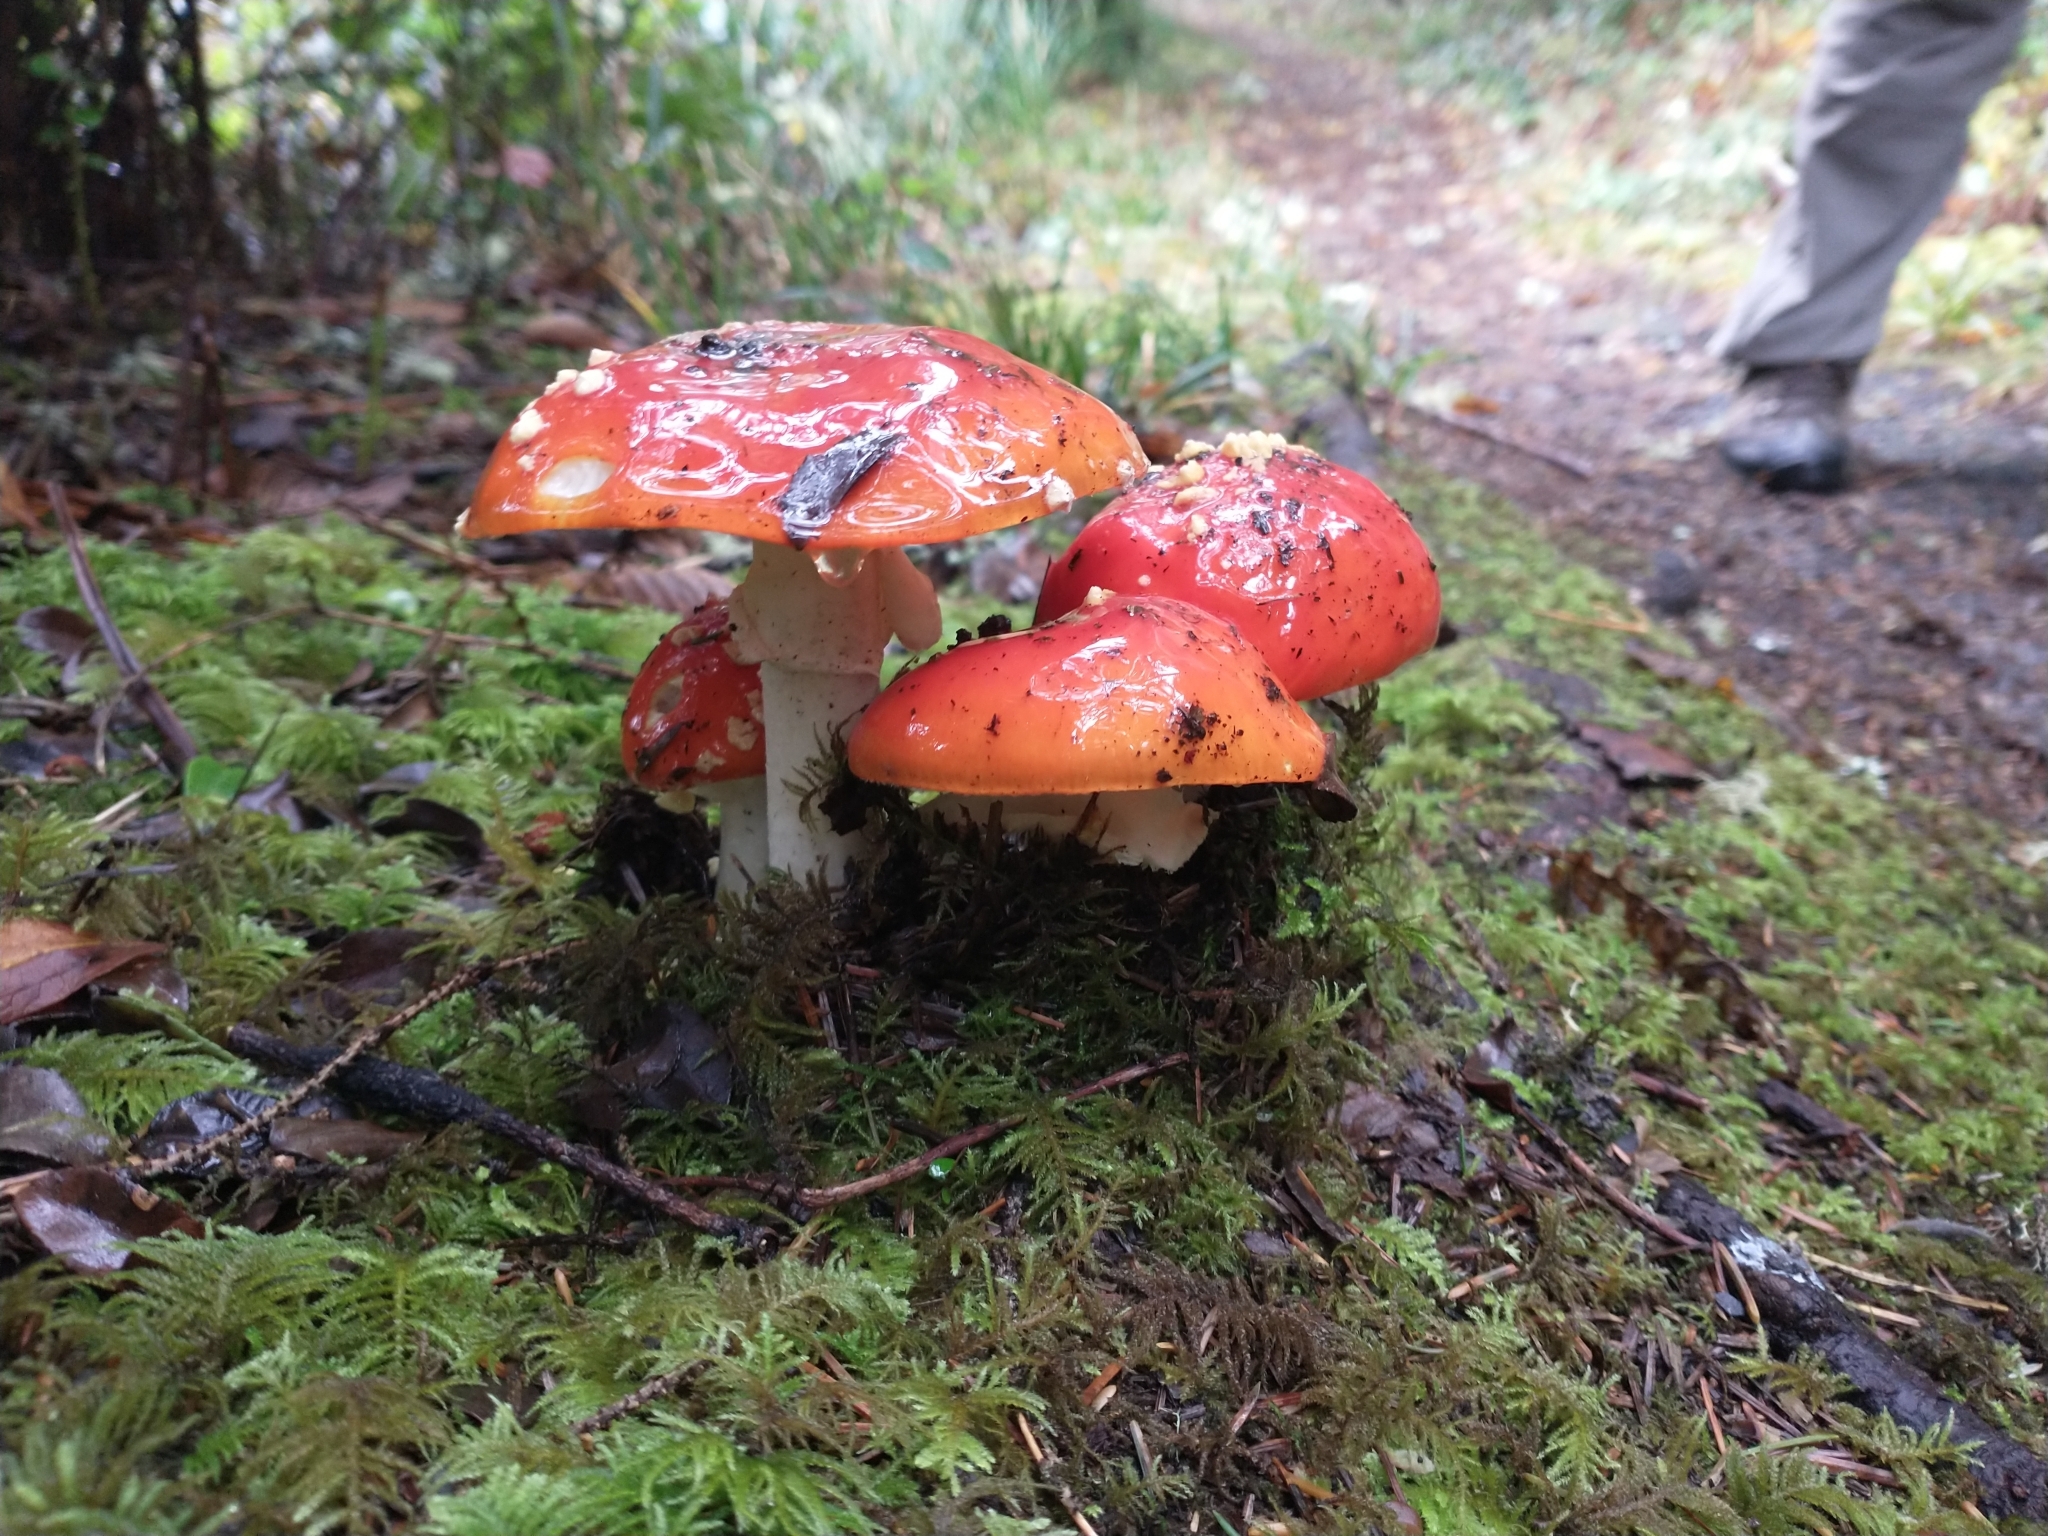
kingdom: Fungi
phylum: Basidiomycota
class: Agaricomycetes
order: Agaricales
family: Amanitaceae
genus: Amanita
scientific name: Amanita muscaria
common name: Fly agaric
